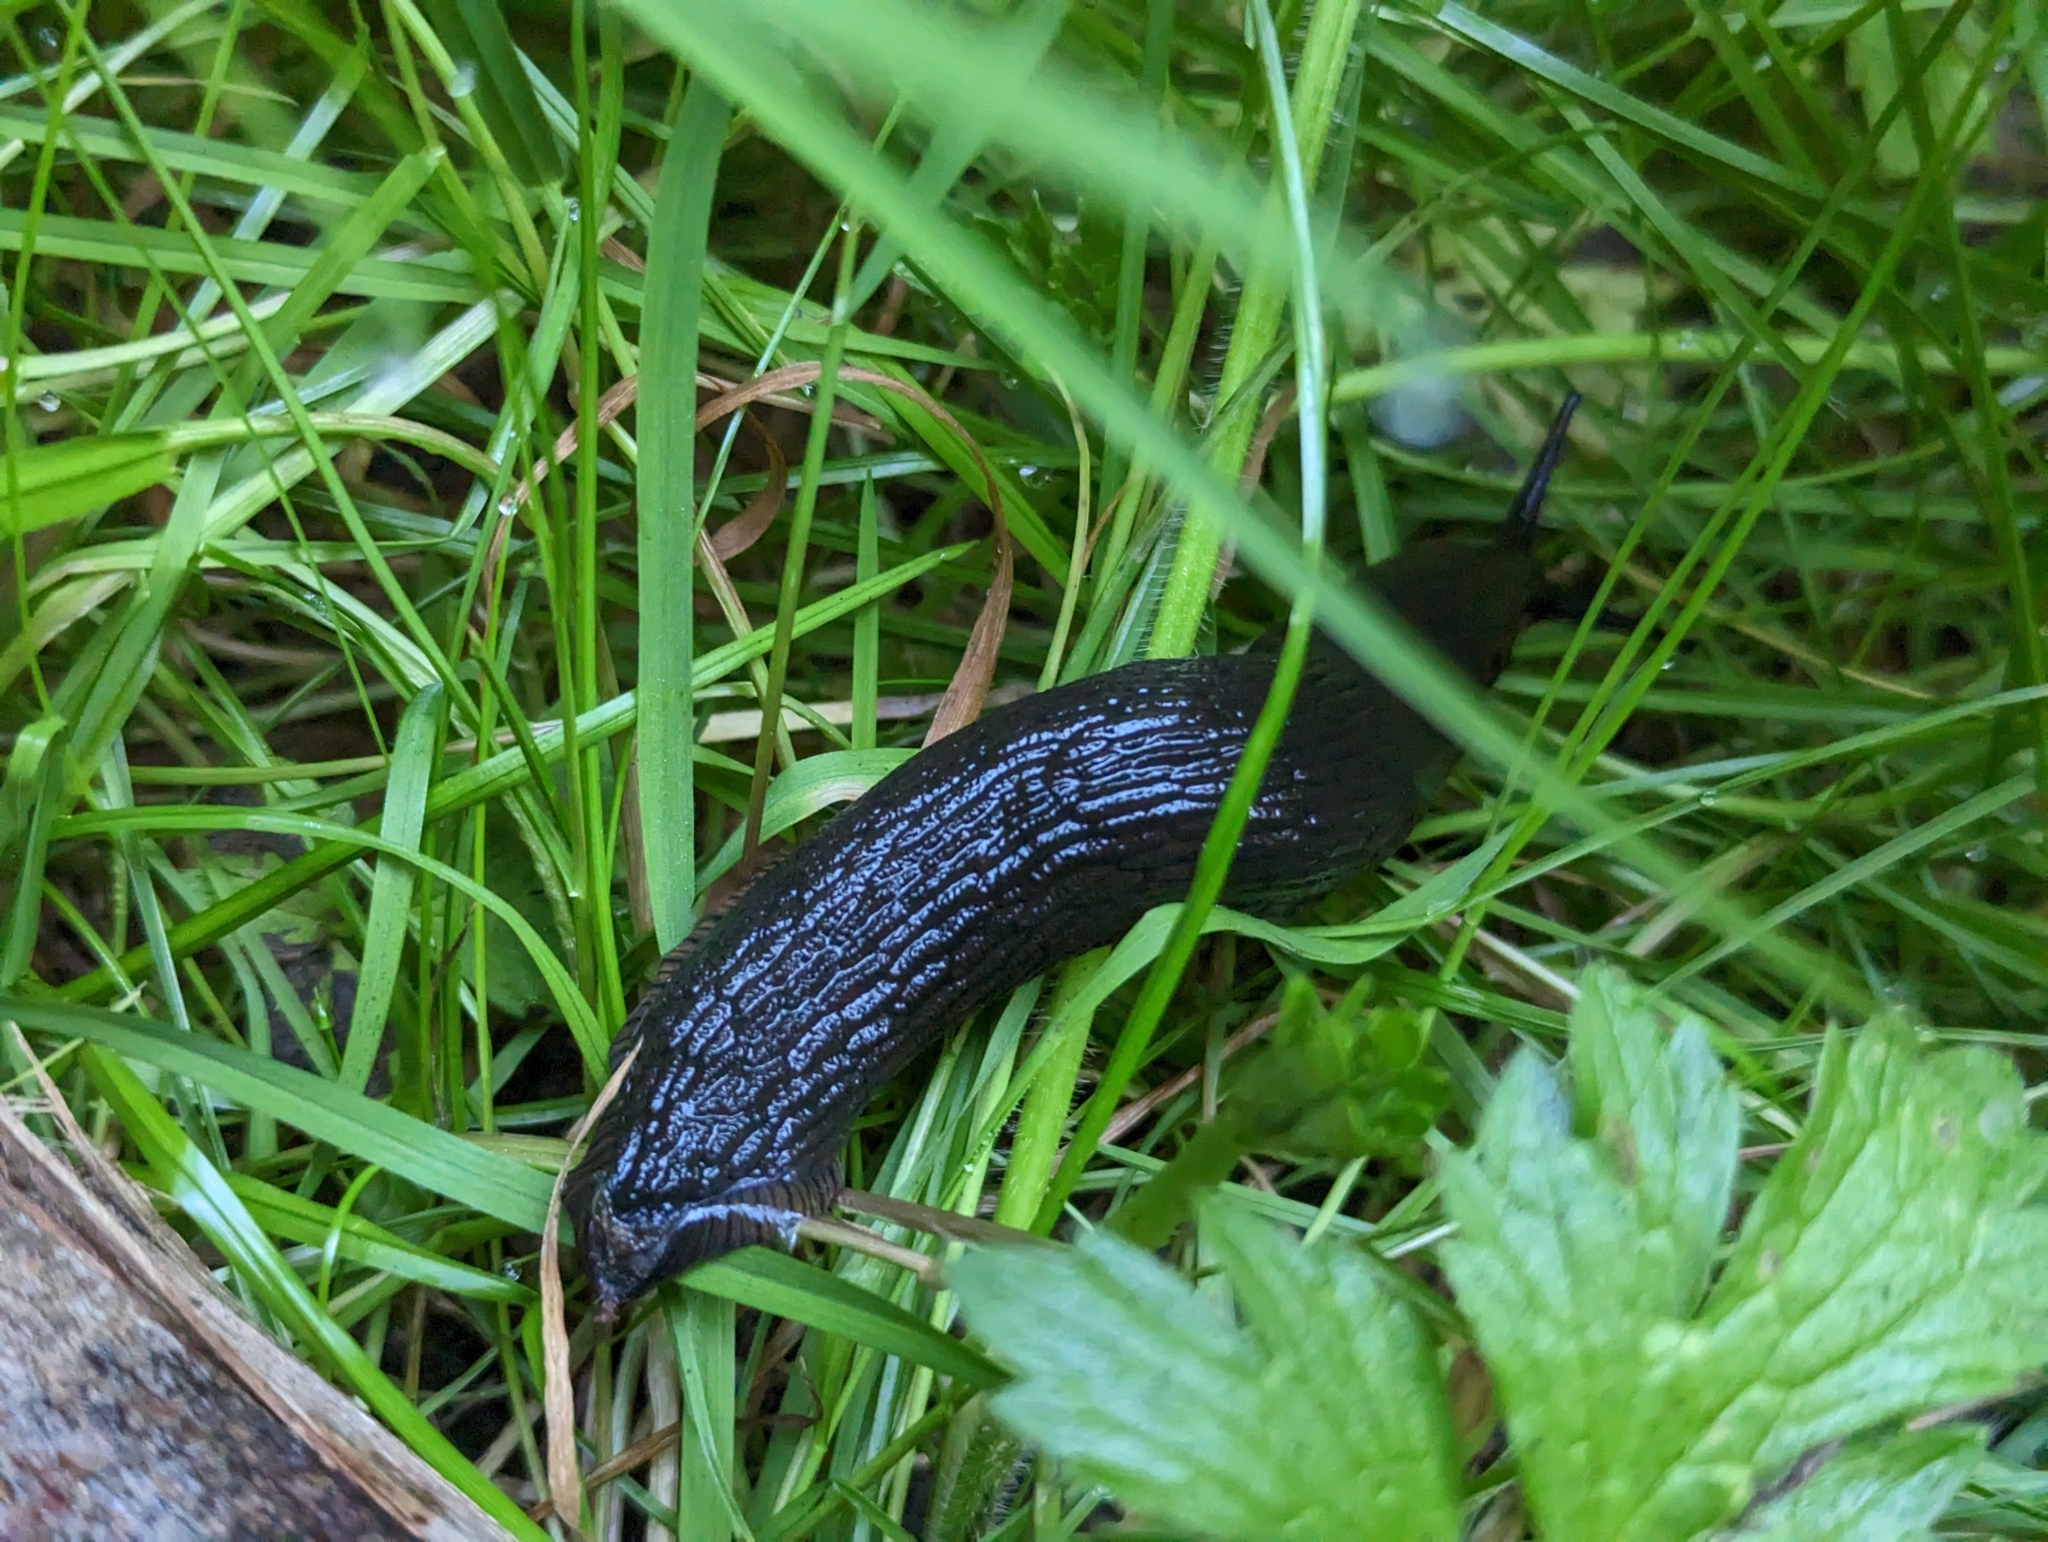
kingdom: Animalia
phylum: Mollusca
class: Gastropoda
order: Stylommatophora
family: Arionidae
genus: Arion
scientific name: Arion
